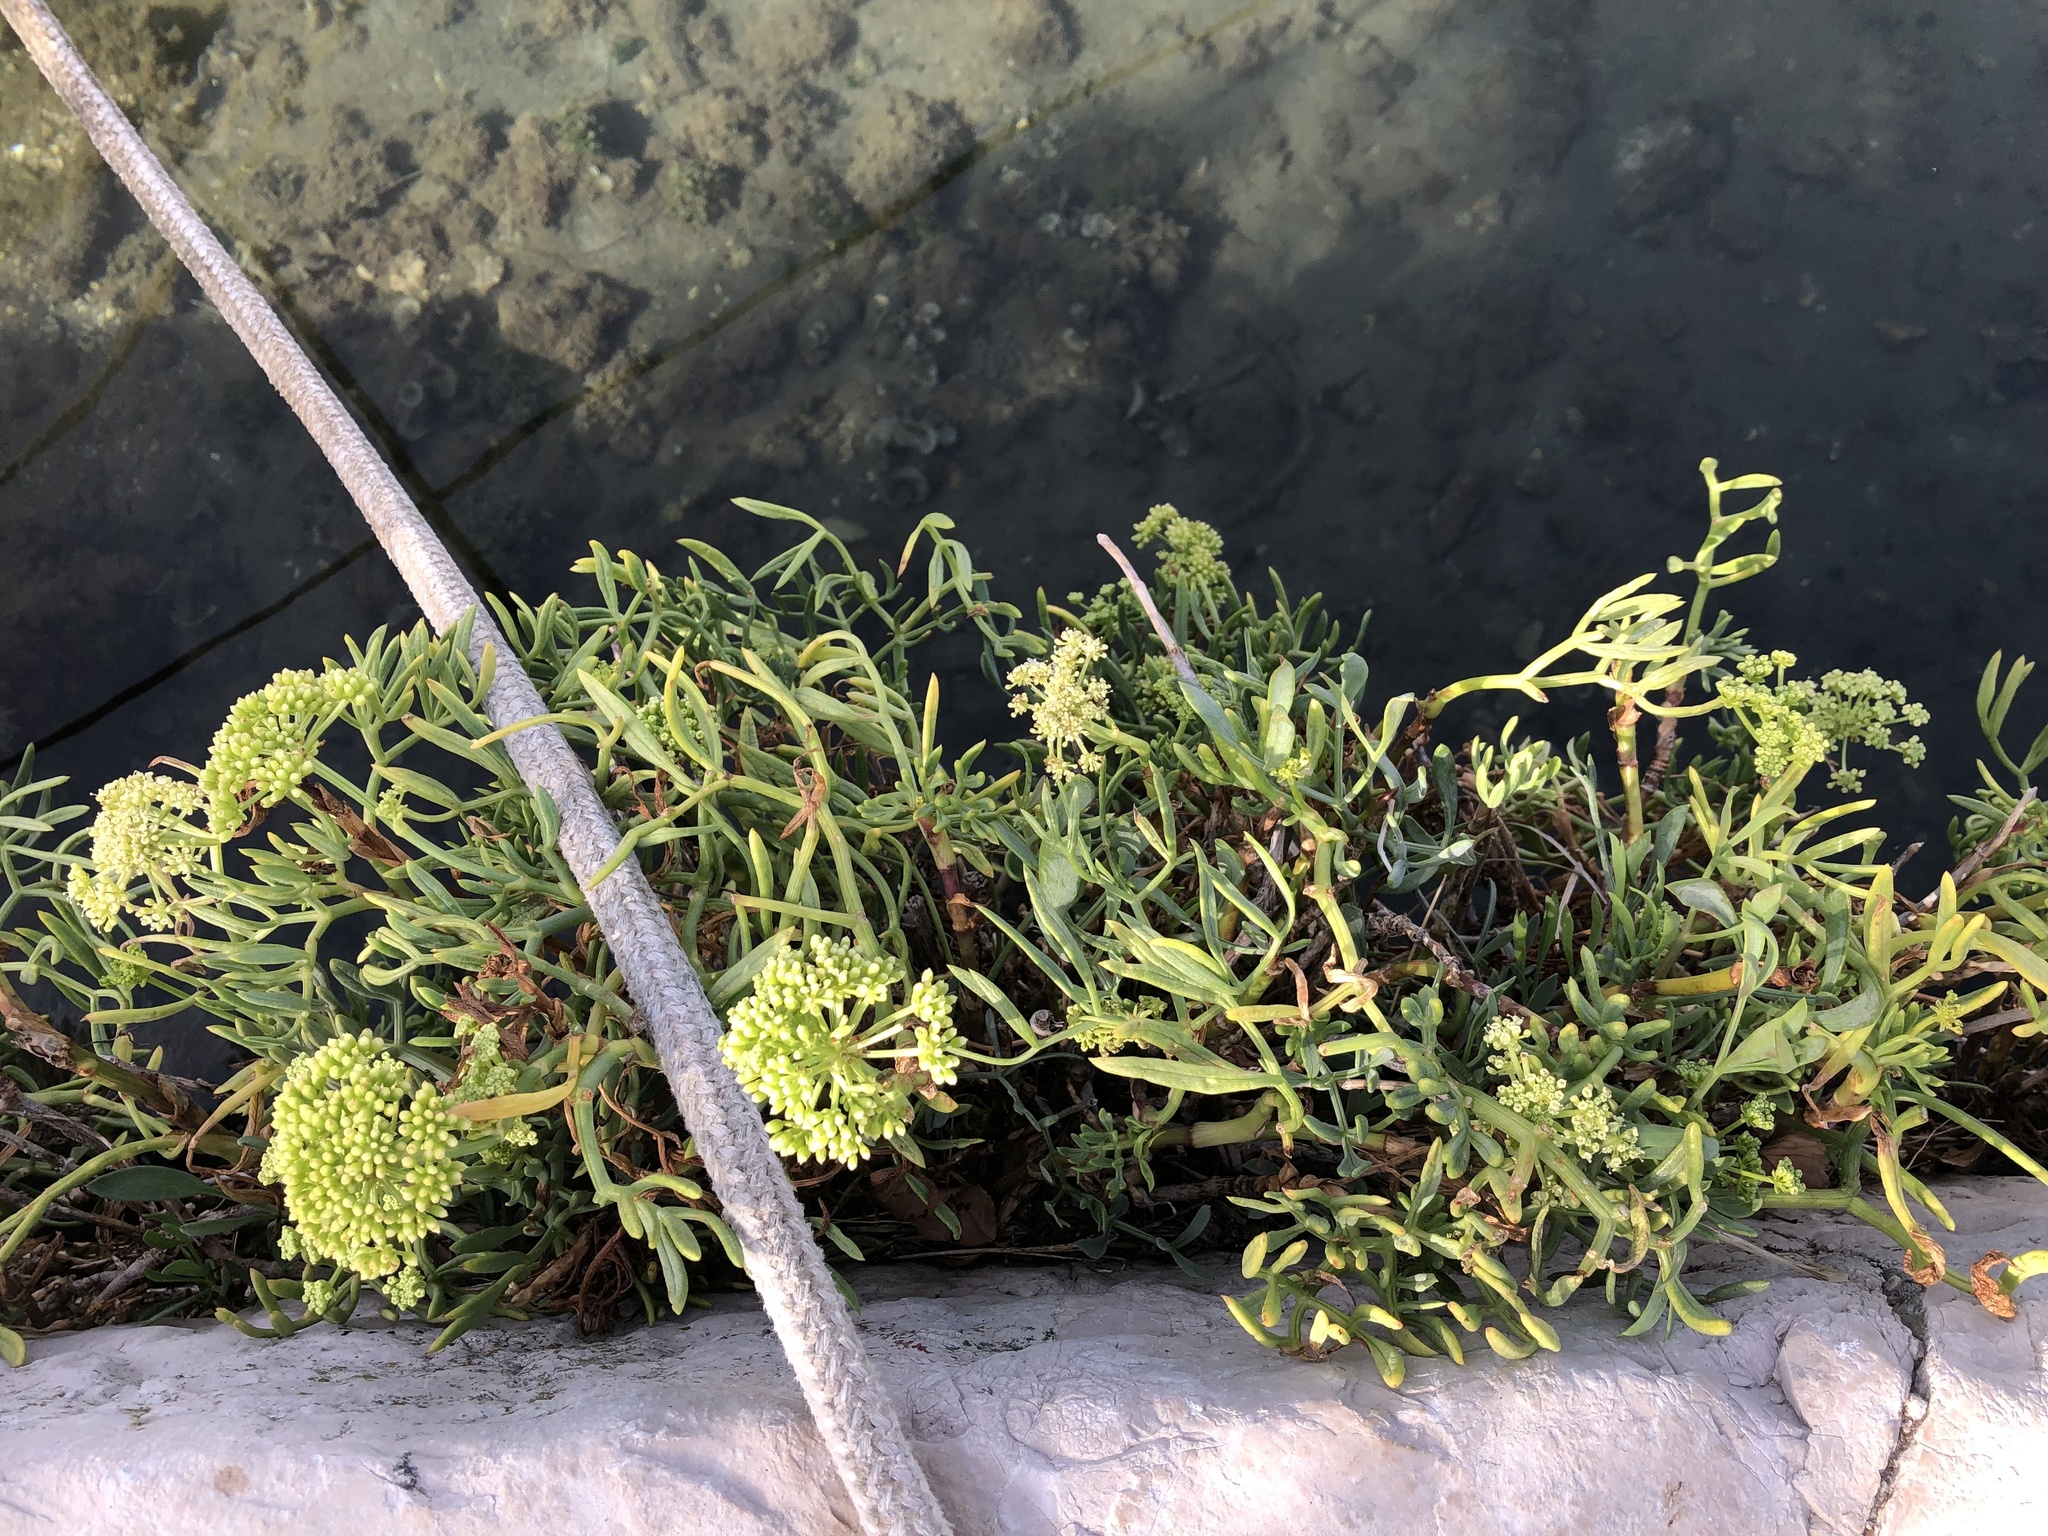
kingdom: Plantae
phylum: Tracheophyta
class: Magnoliopsida
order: Apiales
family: Apiaceae
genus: Crithmum
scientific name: Crithmum maritimum
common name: Rock samphire
